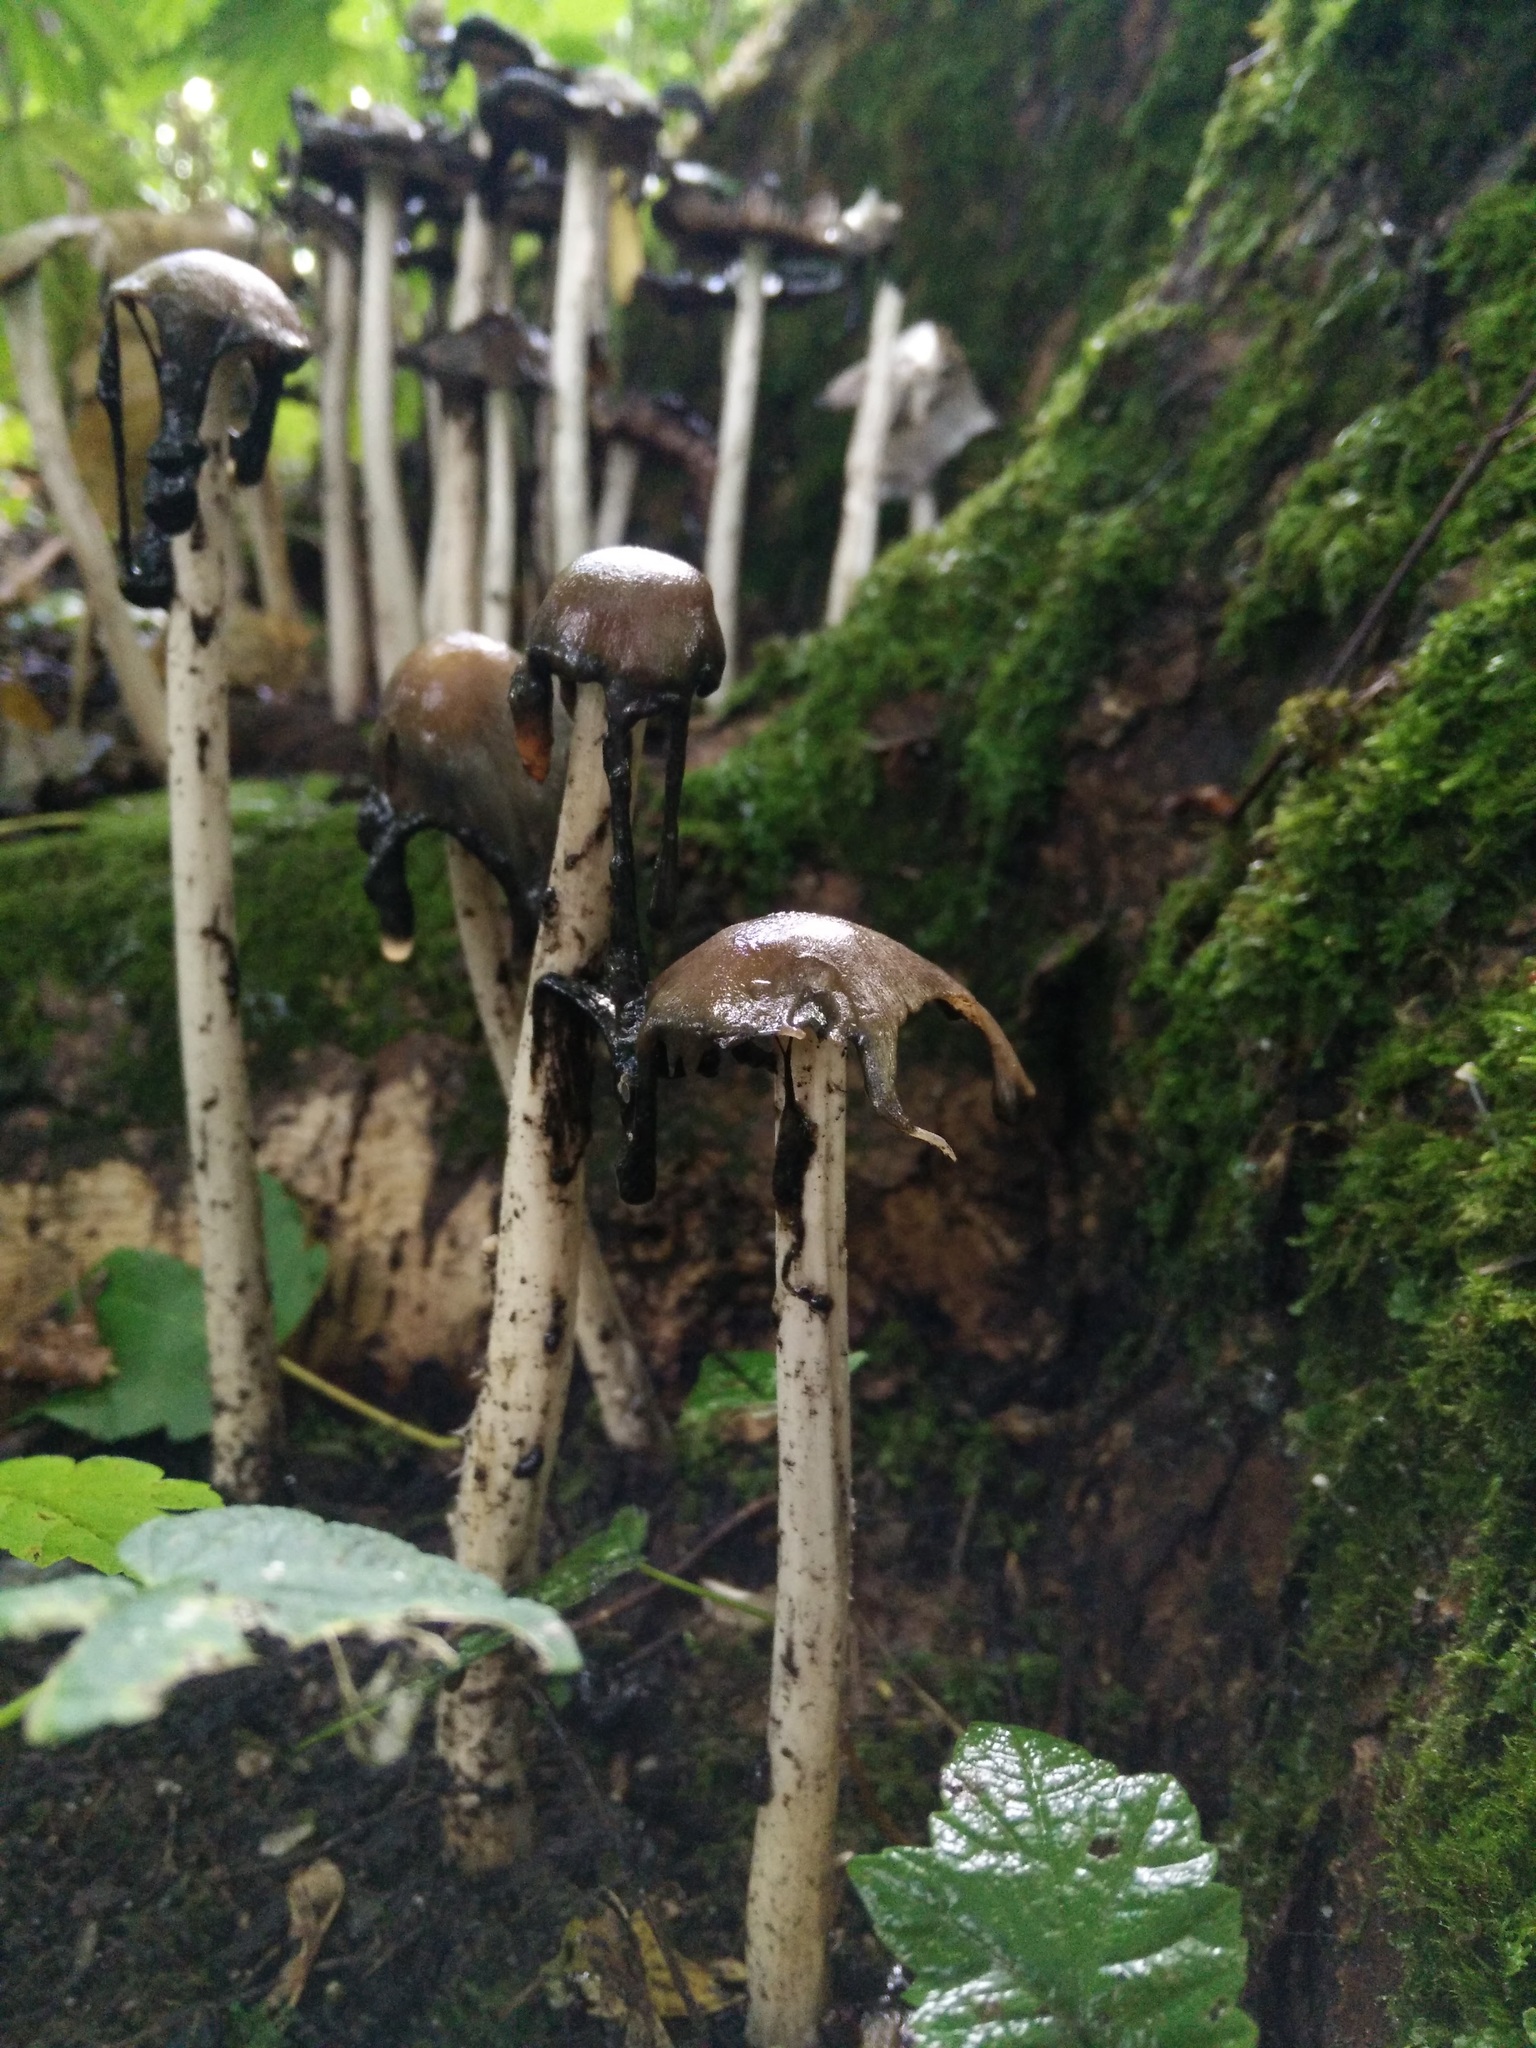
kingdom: Fungi
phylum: Basidiomycota
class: Agaricomycetes
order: Agaricales
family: Psathyrellaceae
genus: Coprinopsis
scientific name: Coprinopsis atramentaria
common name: Common ink-cap
